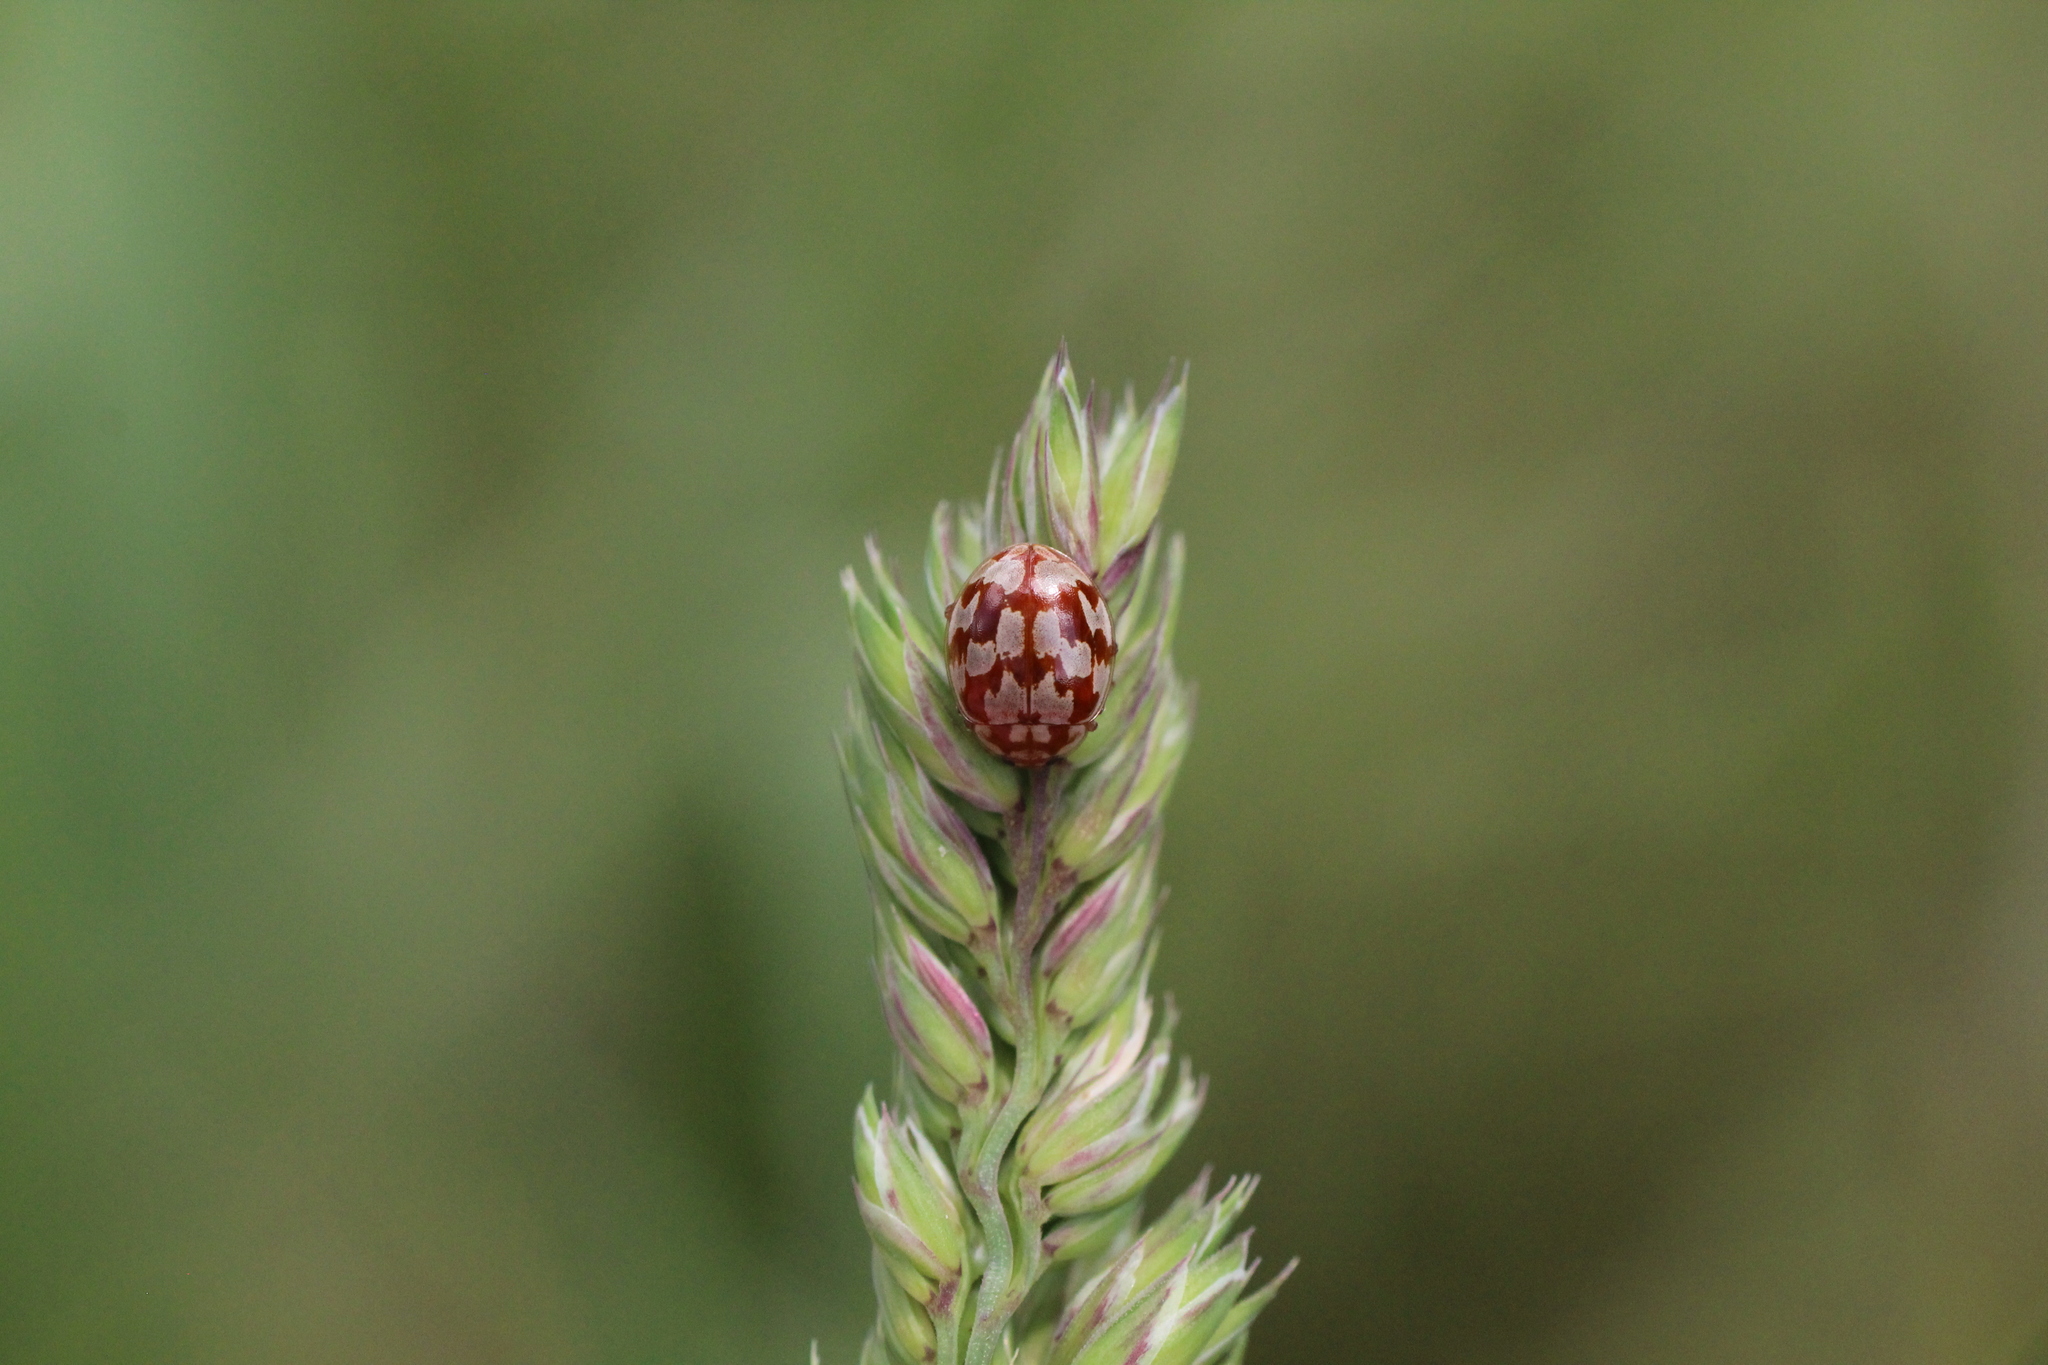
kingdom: Animalia
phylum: Arthropoda
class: Insecta
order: Coleoptera
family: Coccinellidae
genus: Myrrha
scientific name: Myrrha octodecimguttata
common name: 18-spot ladybird
